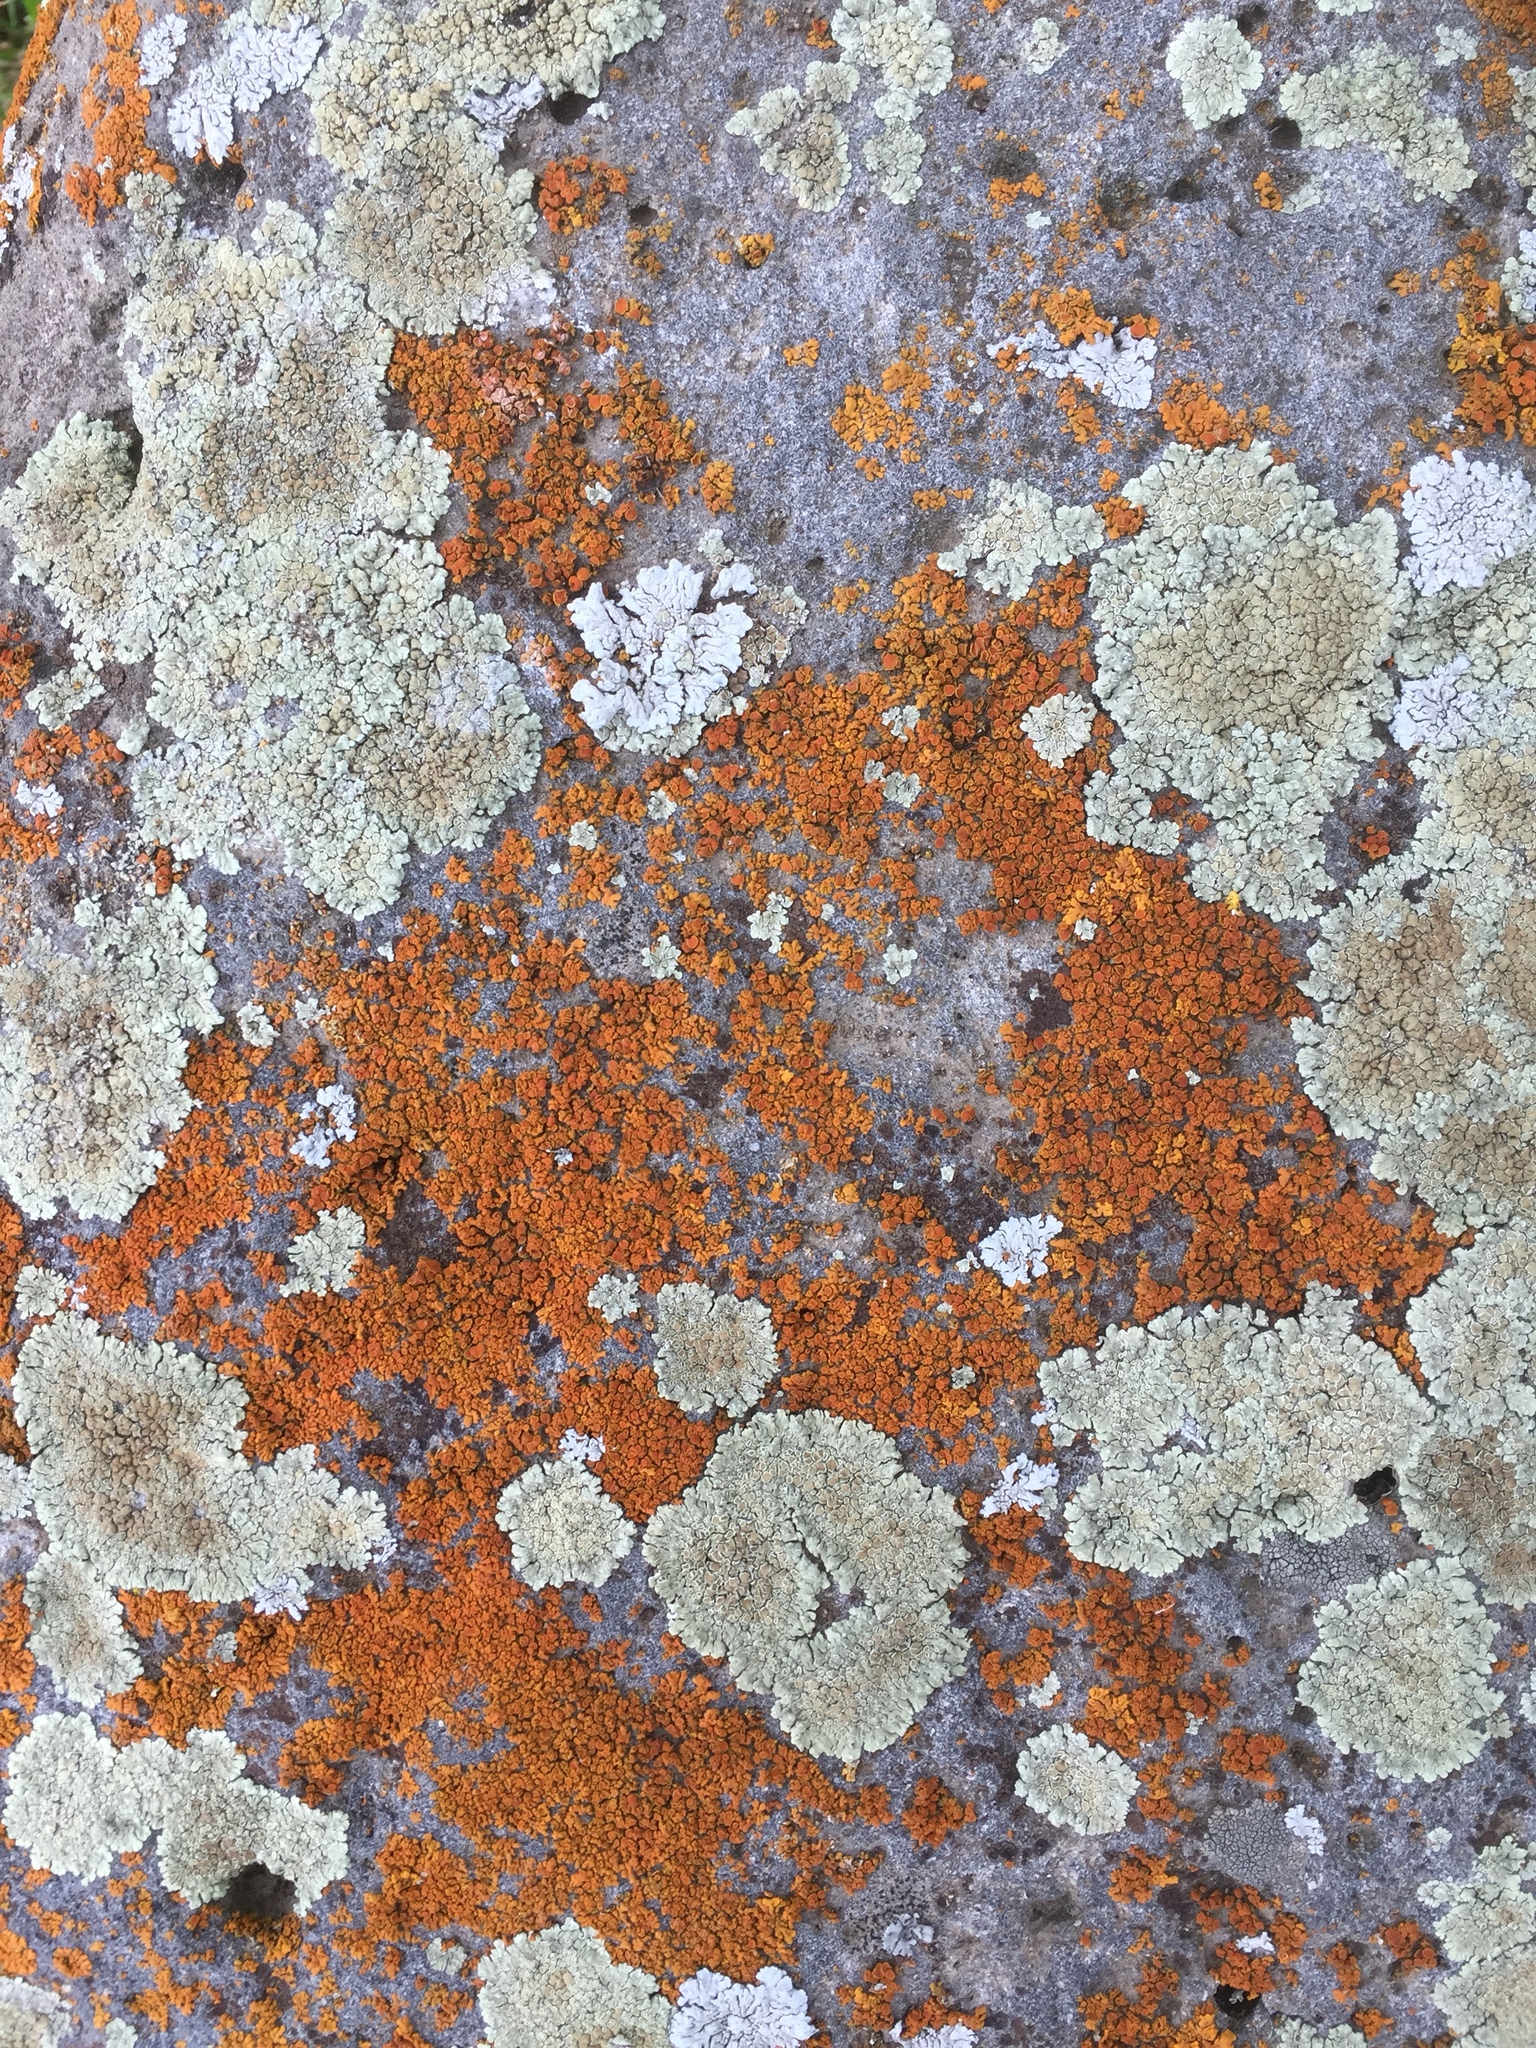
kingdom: Fungi
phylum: Ascomycota
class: Lecanoromycetes
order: Lecanorales
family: Lecanoraceae
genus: Protoparmeliopsis
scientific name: Protoparmeliopsis muralis
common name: Stonewall rim lichen
